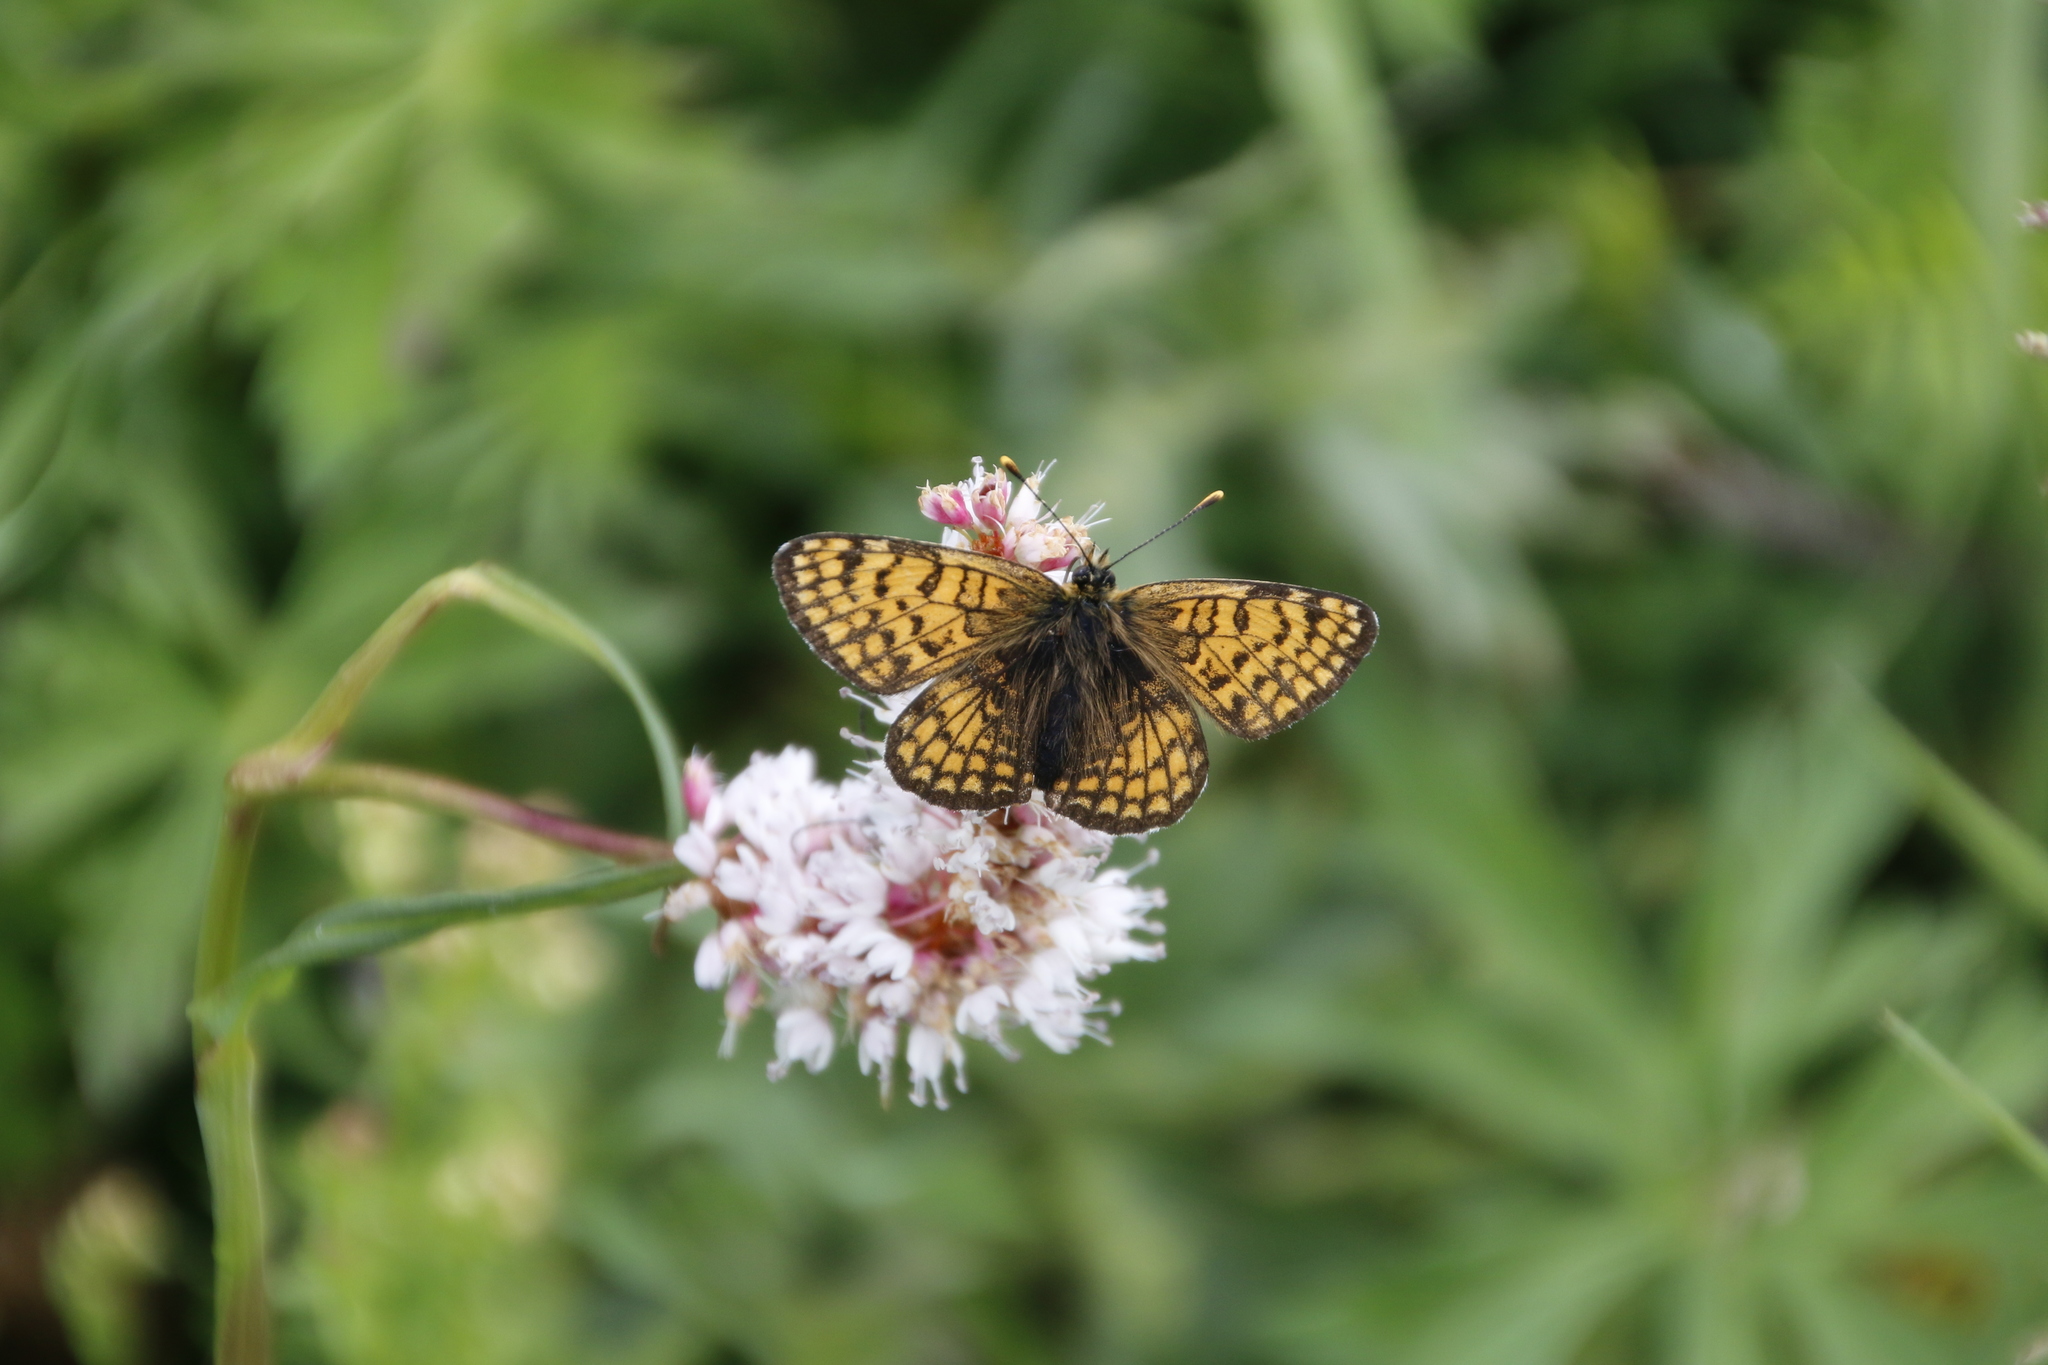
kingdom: Animalia
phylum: Arthropoda
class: Insecta
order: Lepidoptera
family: Nymphalidae
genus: Melitaea
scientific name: Melitaea arcesia
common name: Blackvein fritillary
